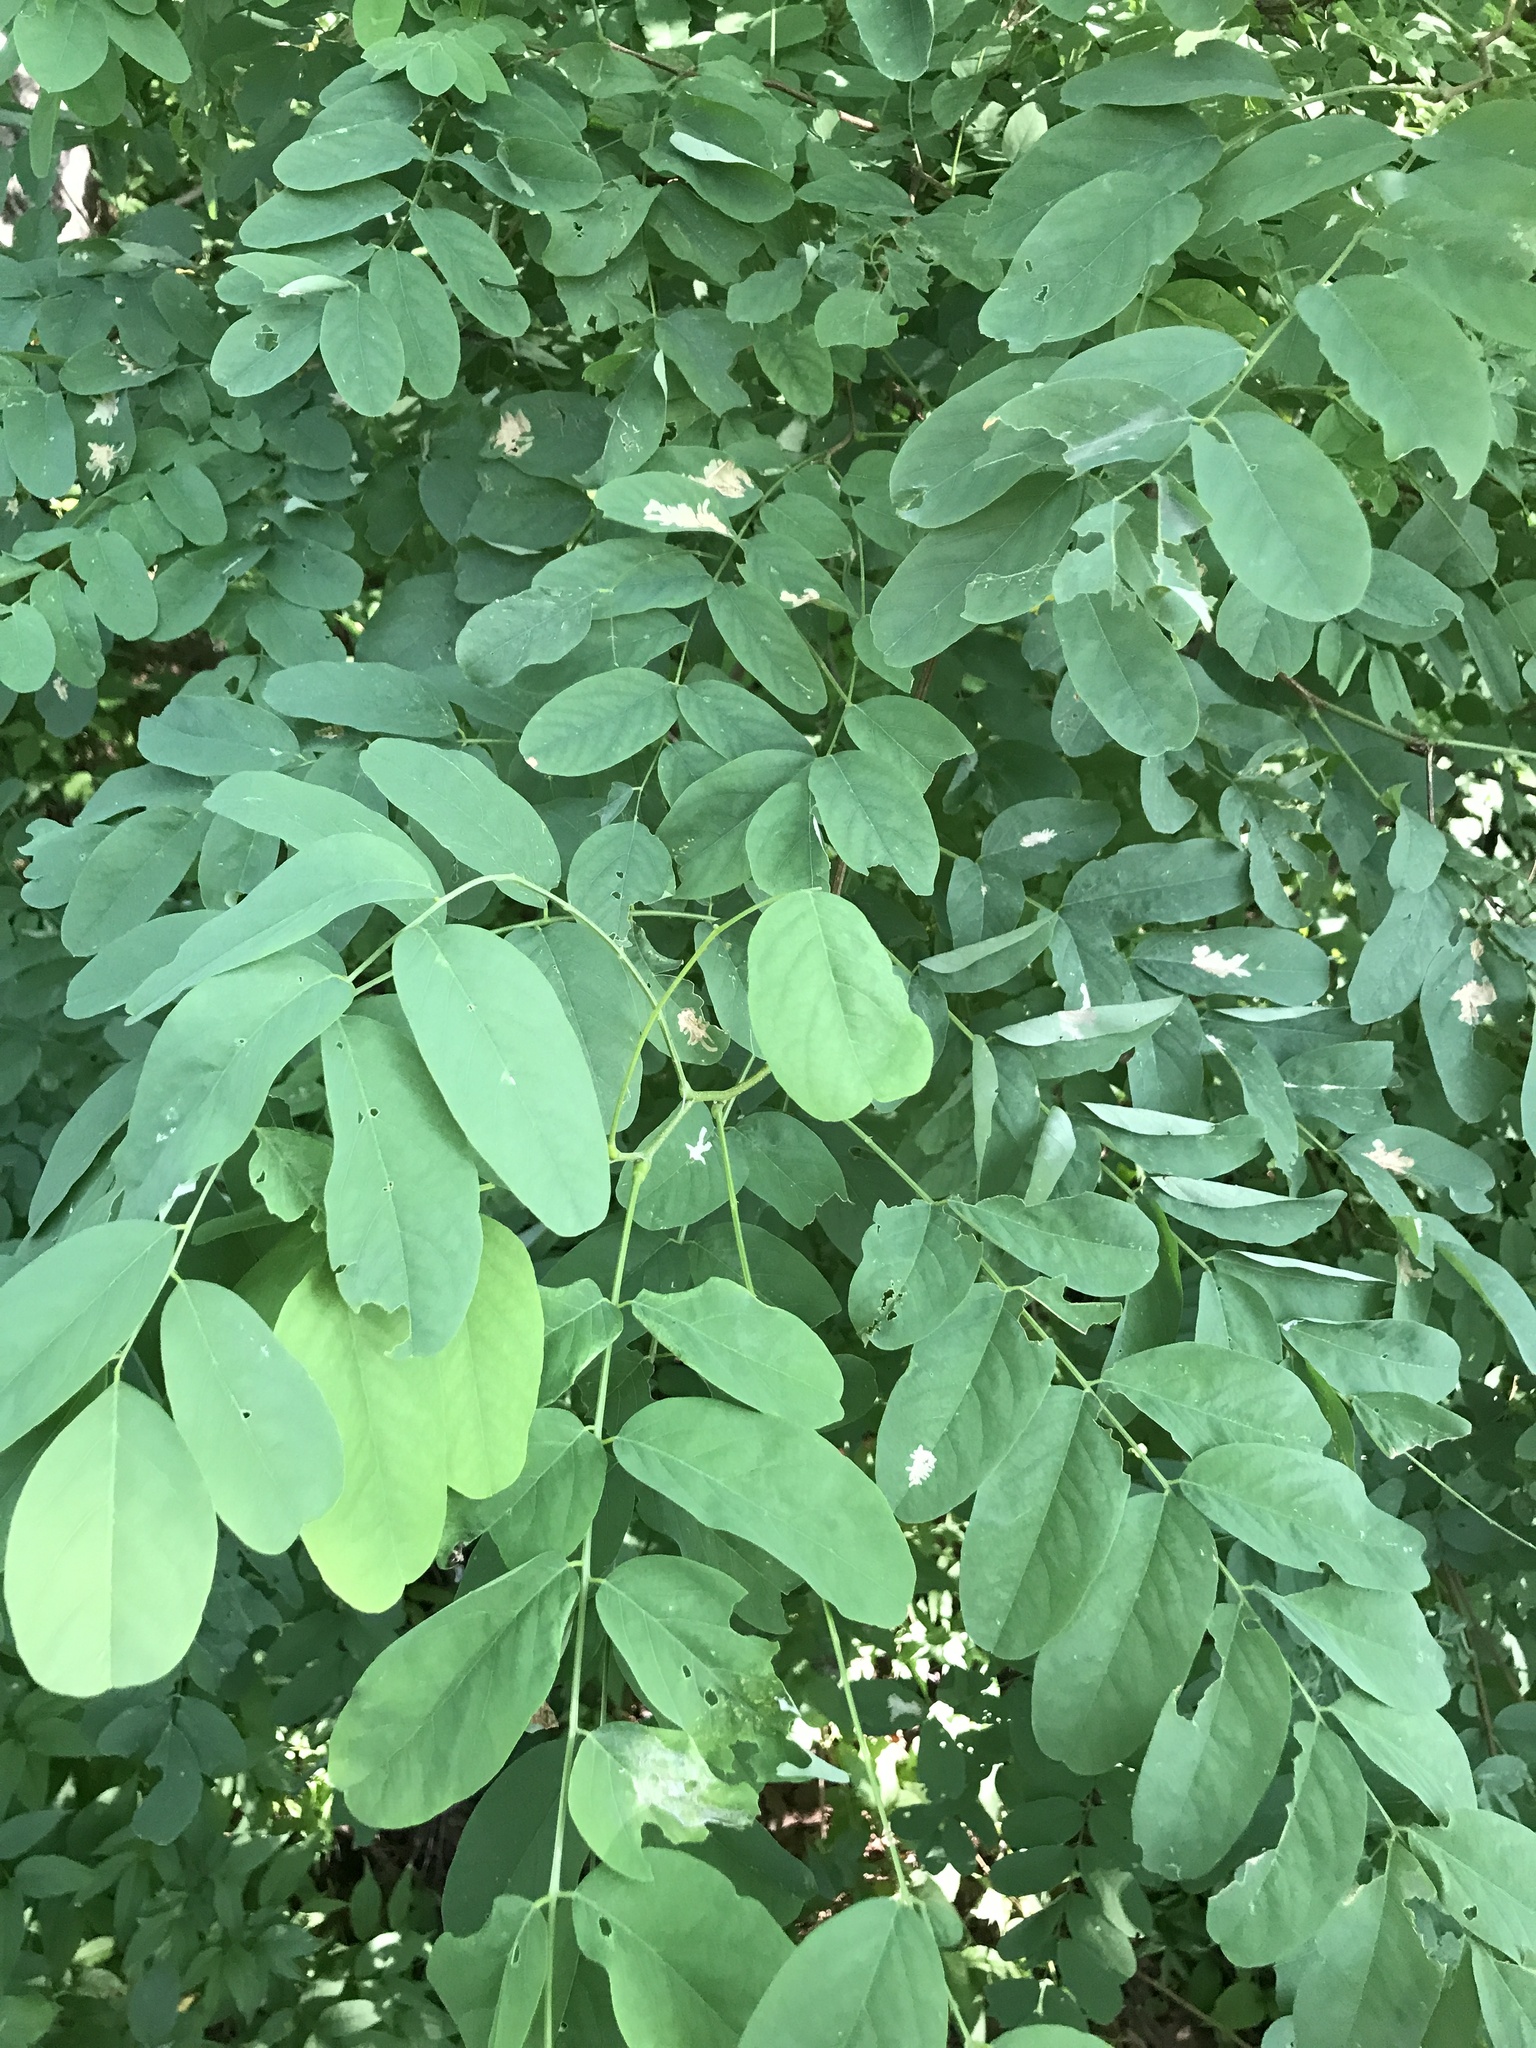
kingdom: Plantae
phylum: Tracheophyta
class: Magnoliopsida
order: Fabales
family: Fabaceae
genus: Robinia
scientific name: Robinia pseudoacacia
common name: Black locust
